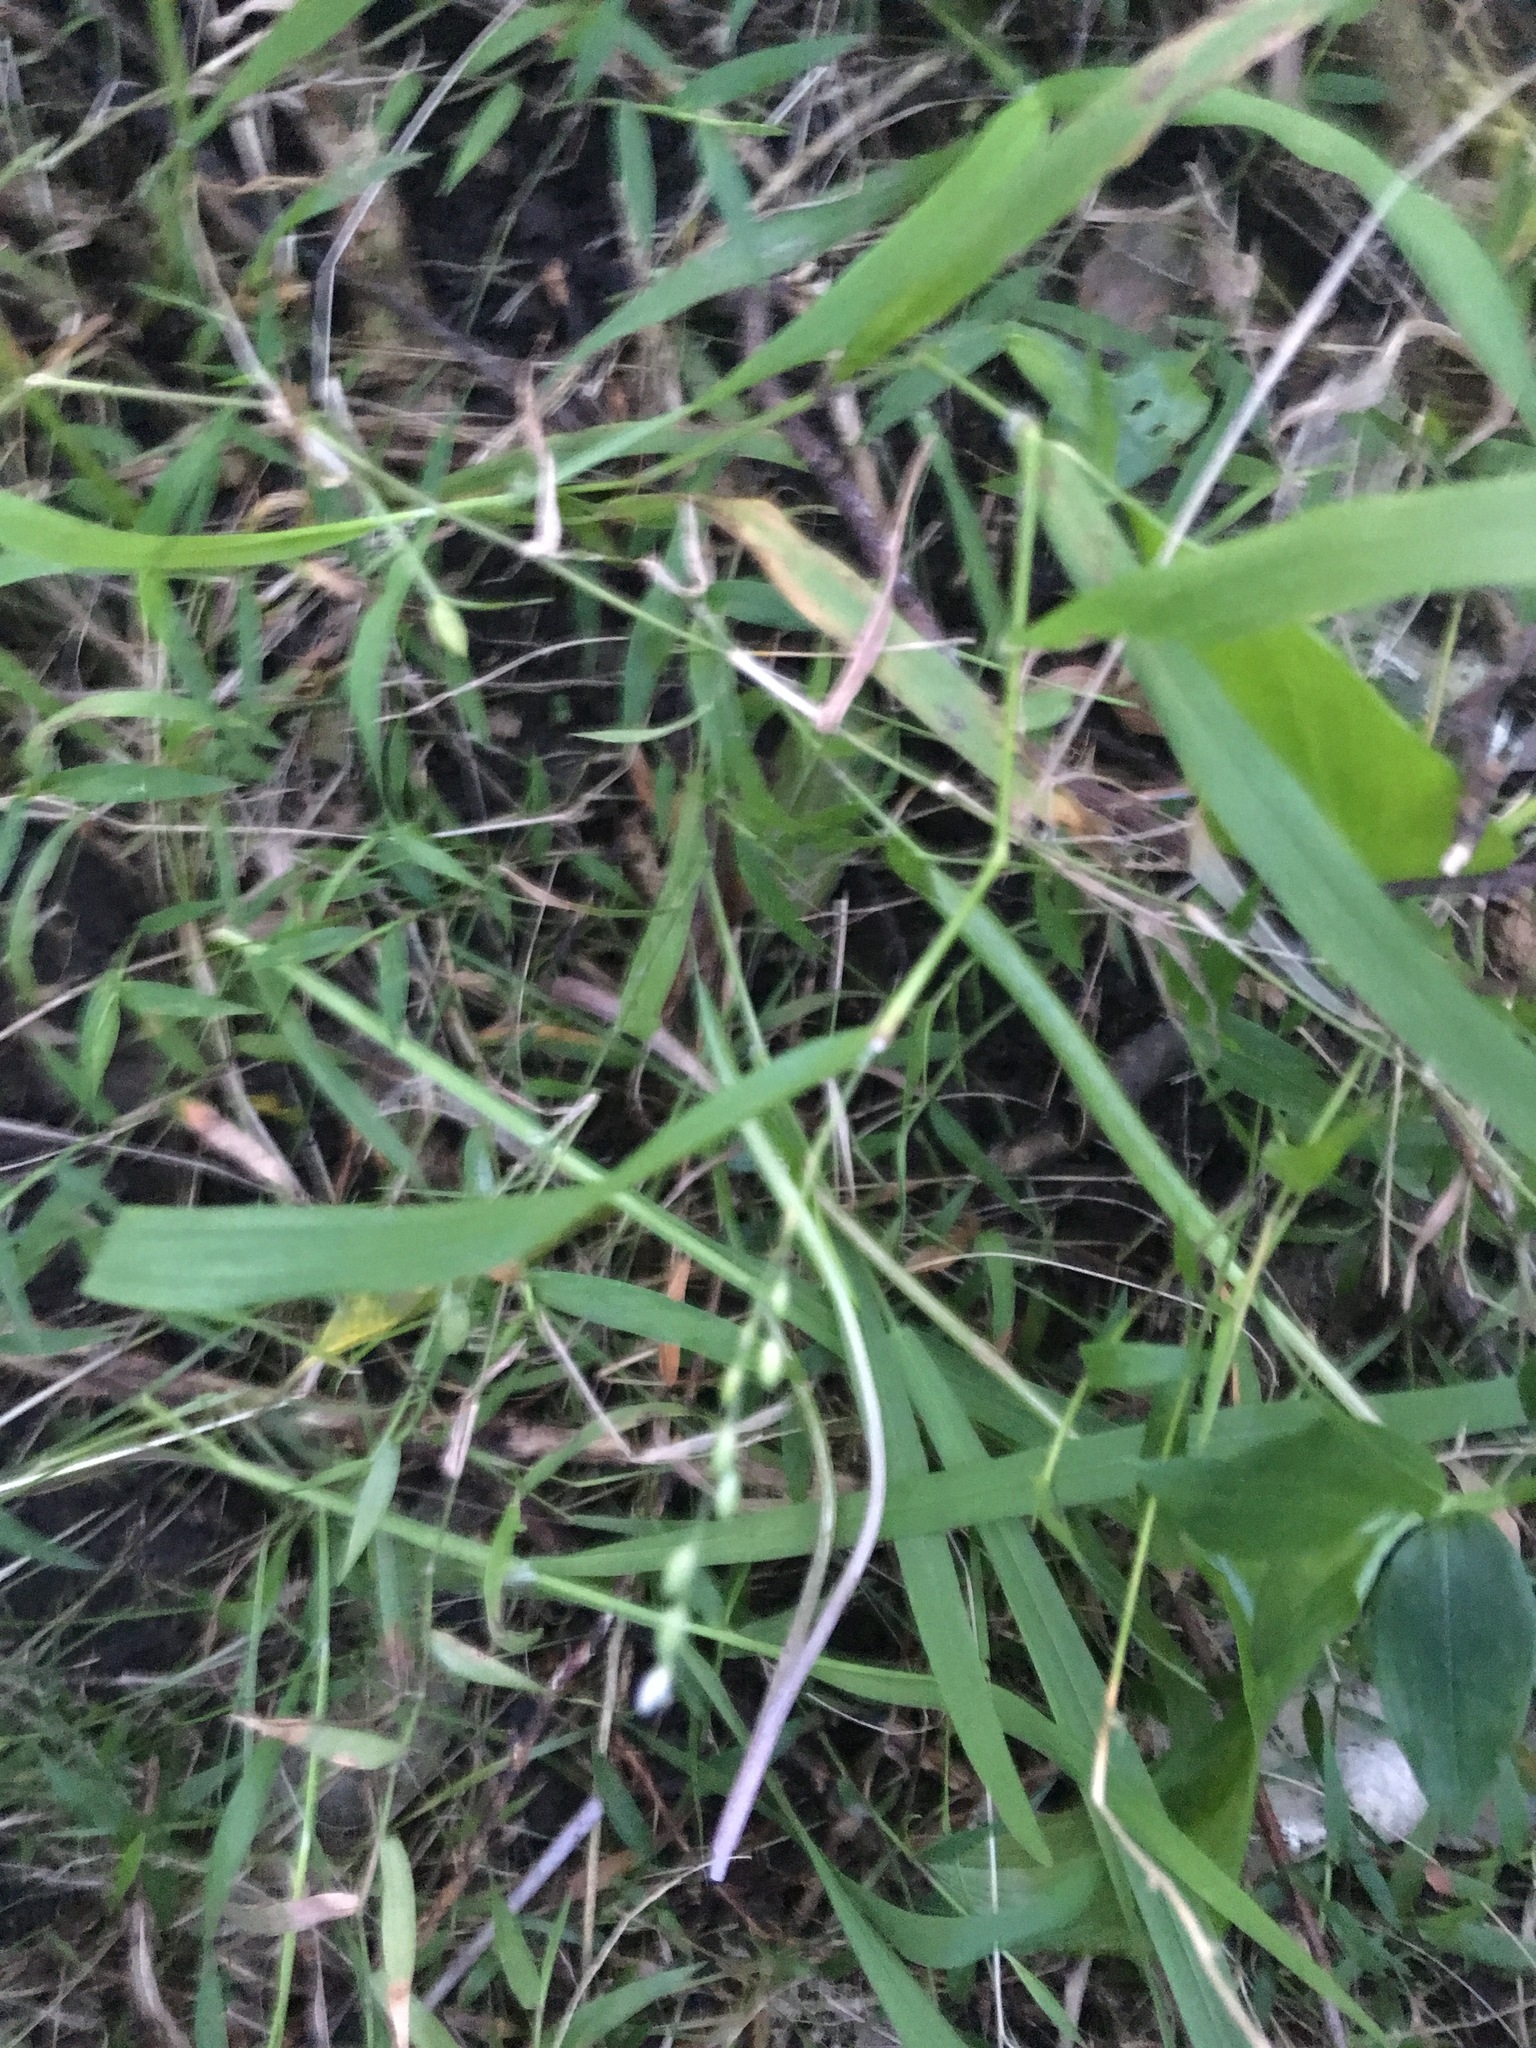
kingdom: Plantae
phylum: Tracheophyta
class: Liliopsida
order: Poales
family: Poaceae
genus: Ehrharta
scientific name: Ehrharta erecta
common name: Panic veldtgrass
